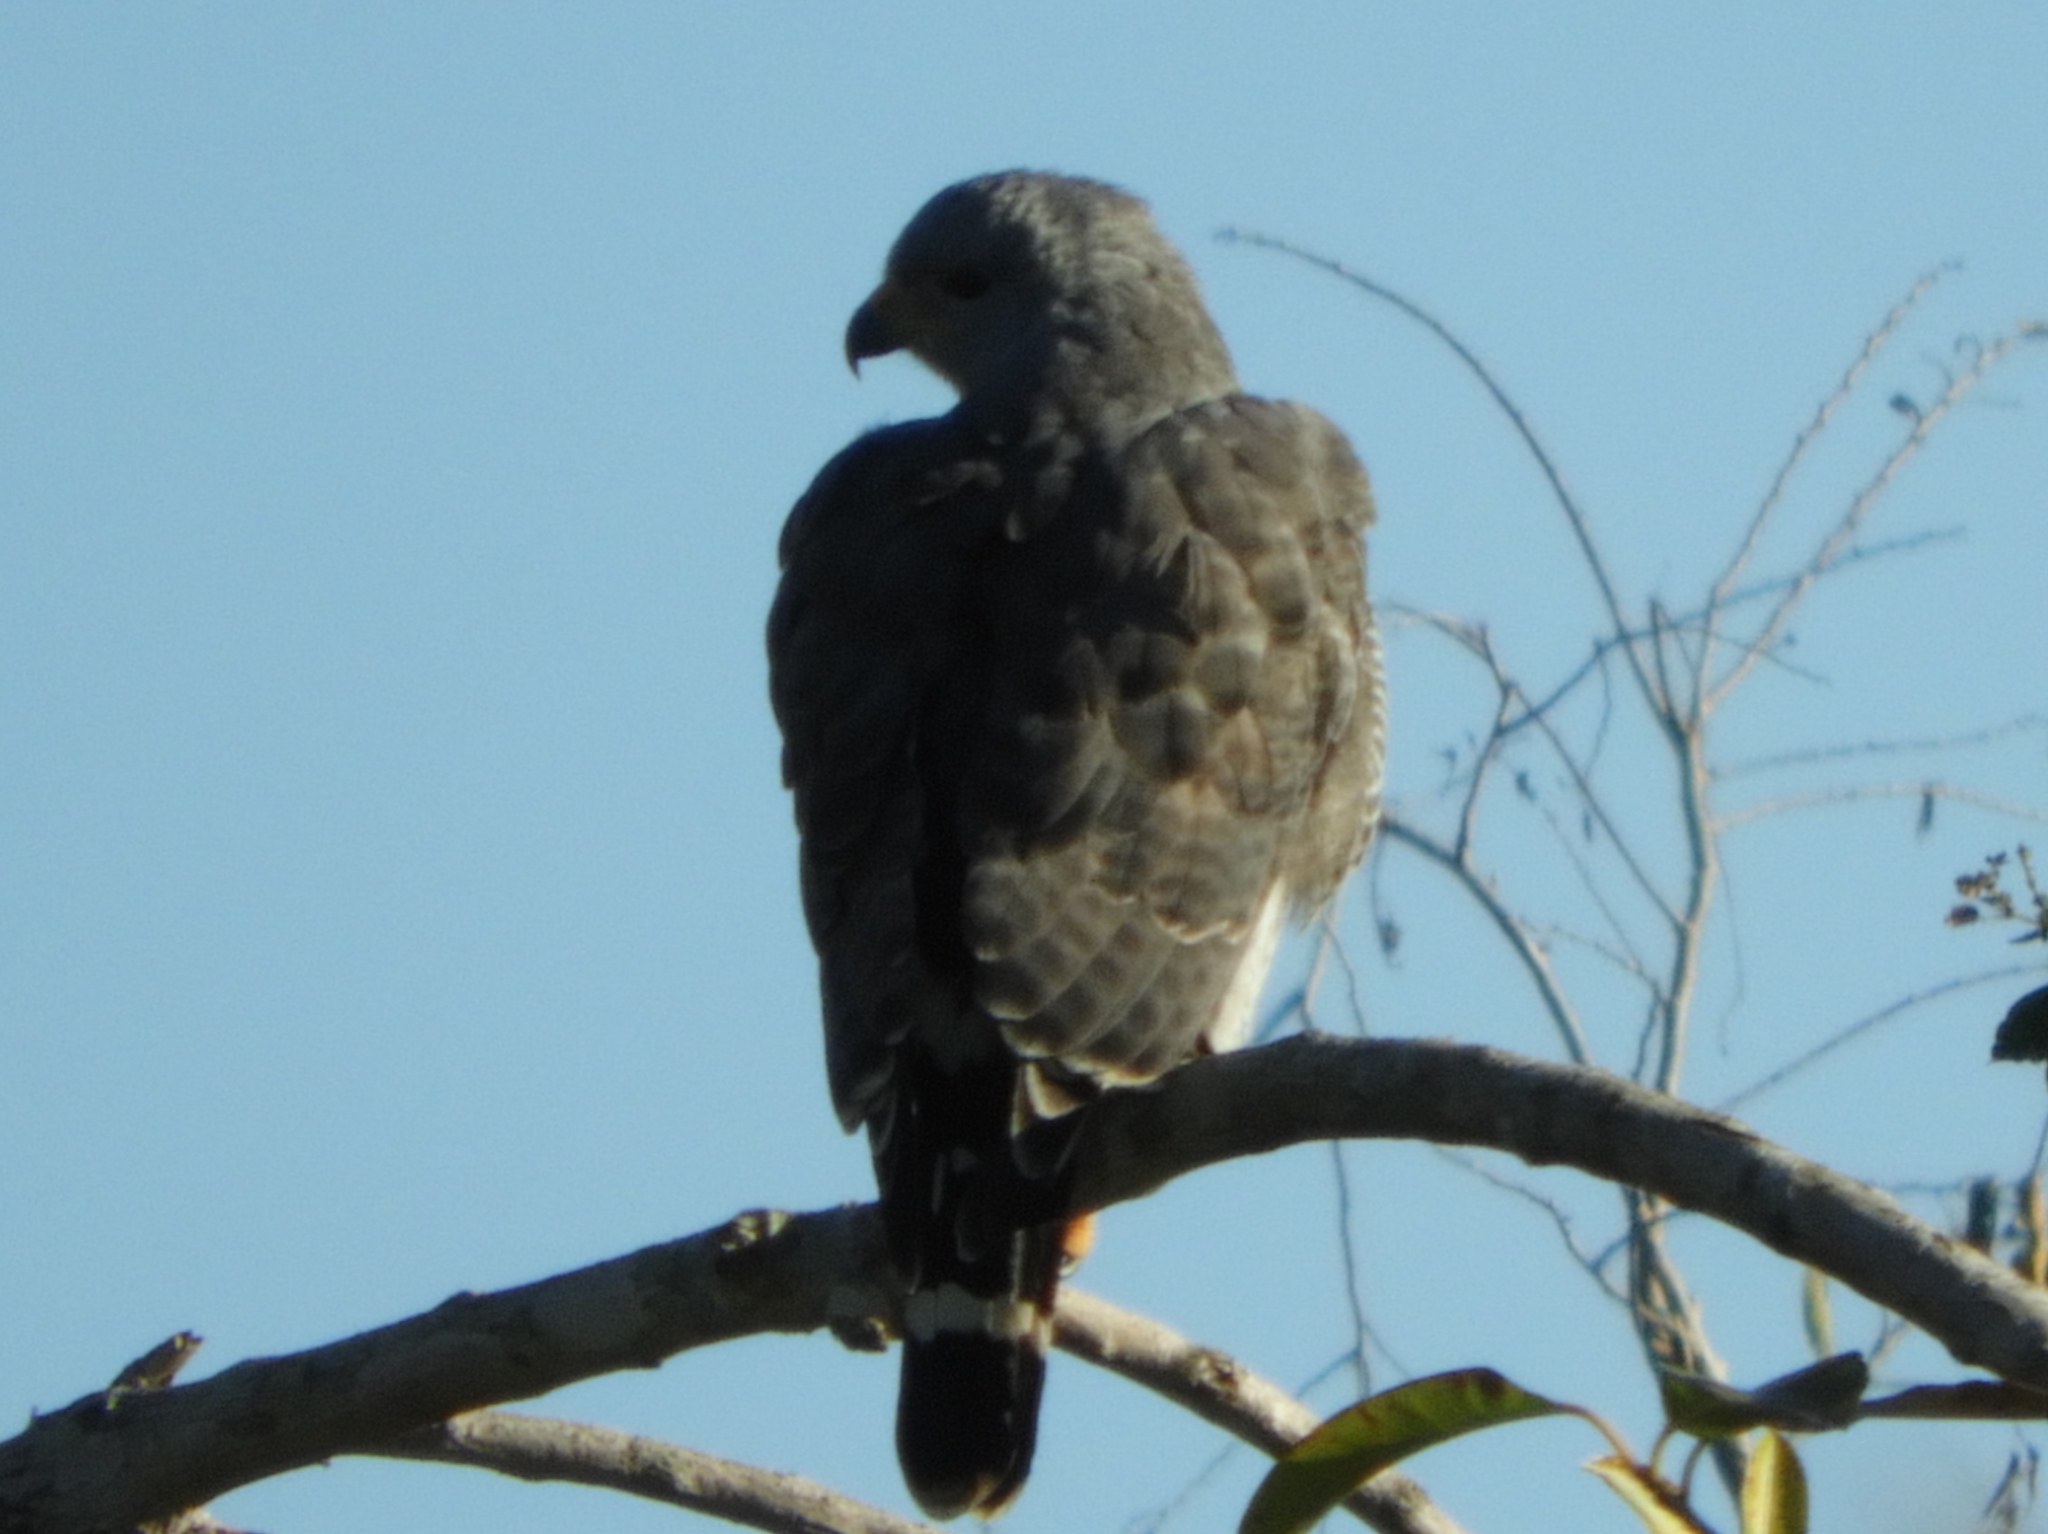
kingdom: Animalia
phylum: Chordata
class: Aves
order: Accipitriformes
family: Accipitridae
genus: Buteo
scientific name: Buteo nitidus
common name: Grey-lined hawk
